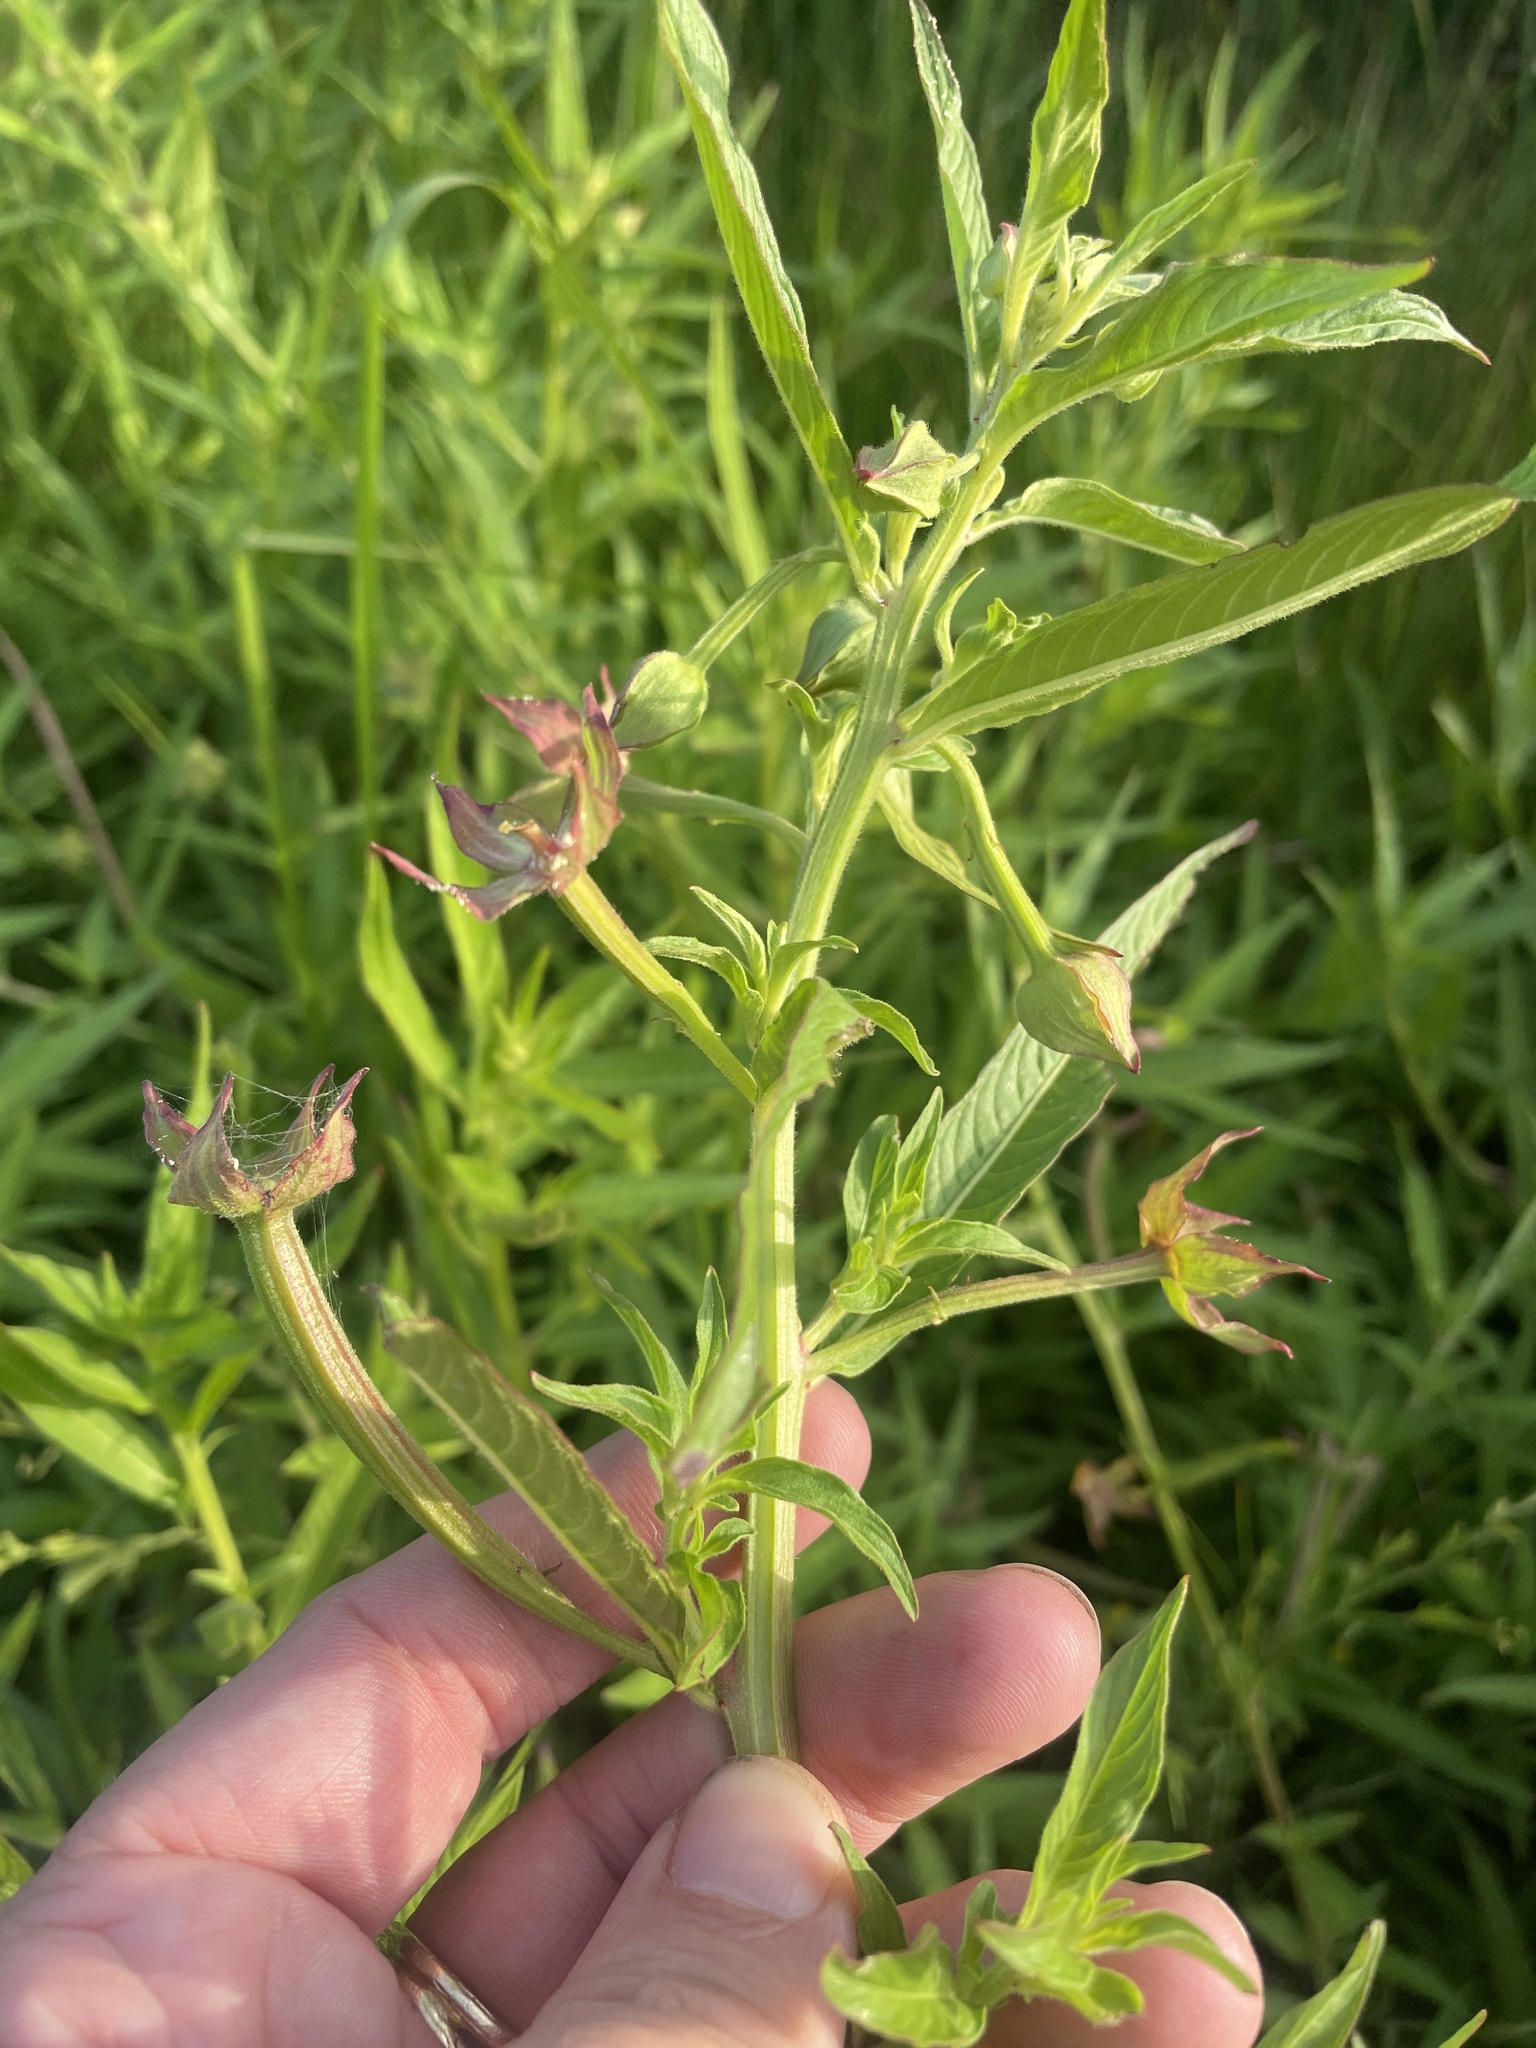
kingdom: Plantae
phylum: Tracheophyta
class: Magnoliopsida
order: Myrtales
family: Onagraceae
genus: Ludwigia
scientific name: Ludwigia octovalvis
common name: Water-primrose
